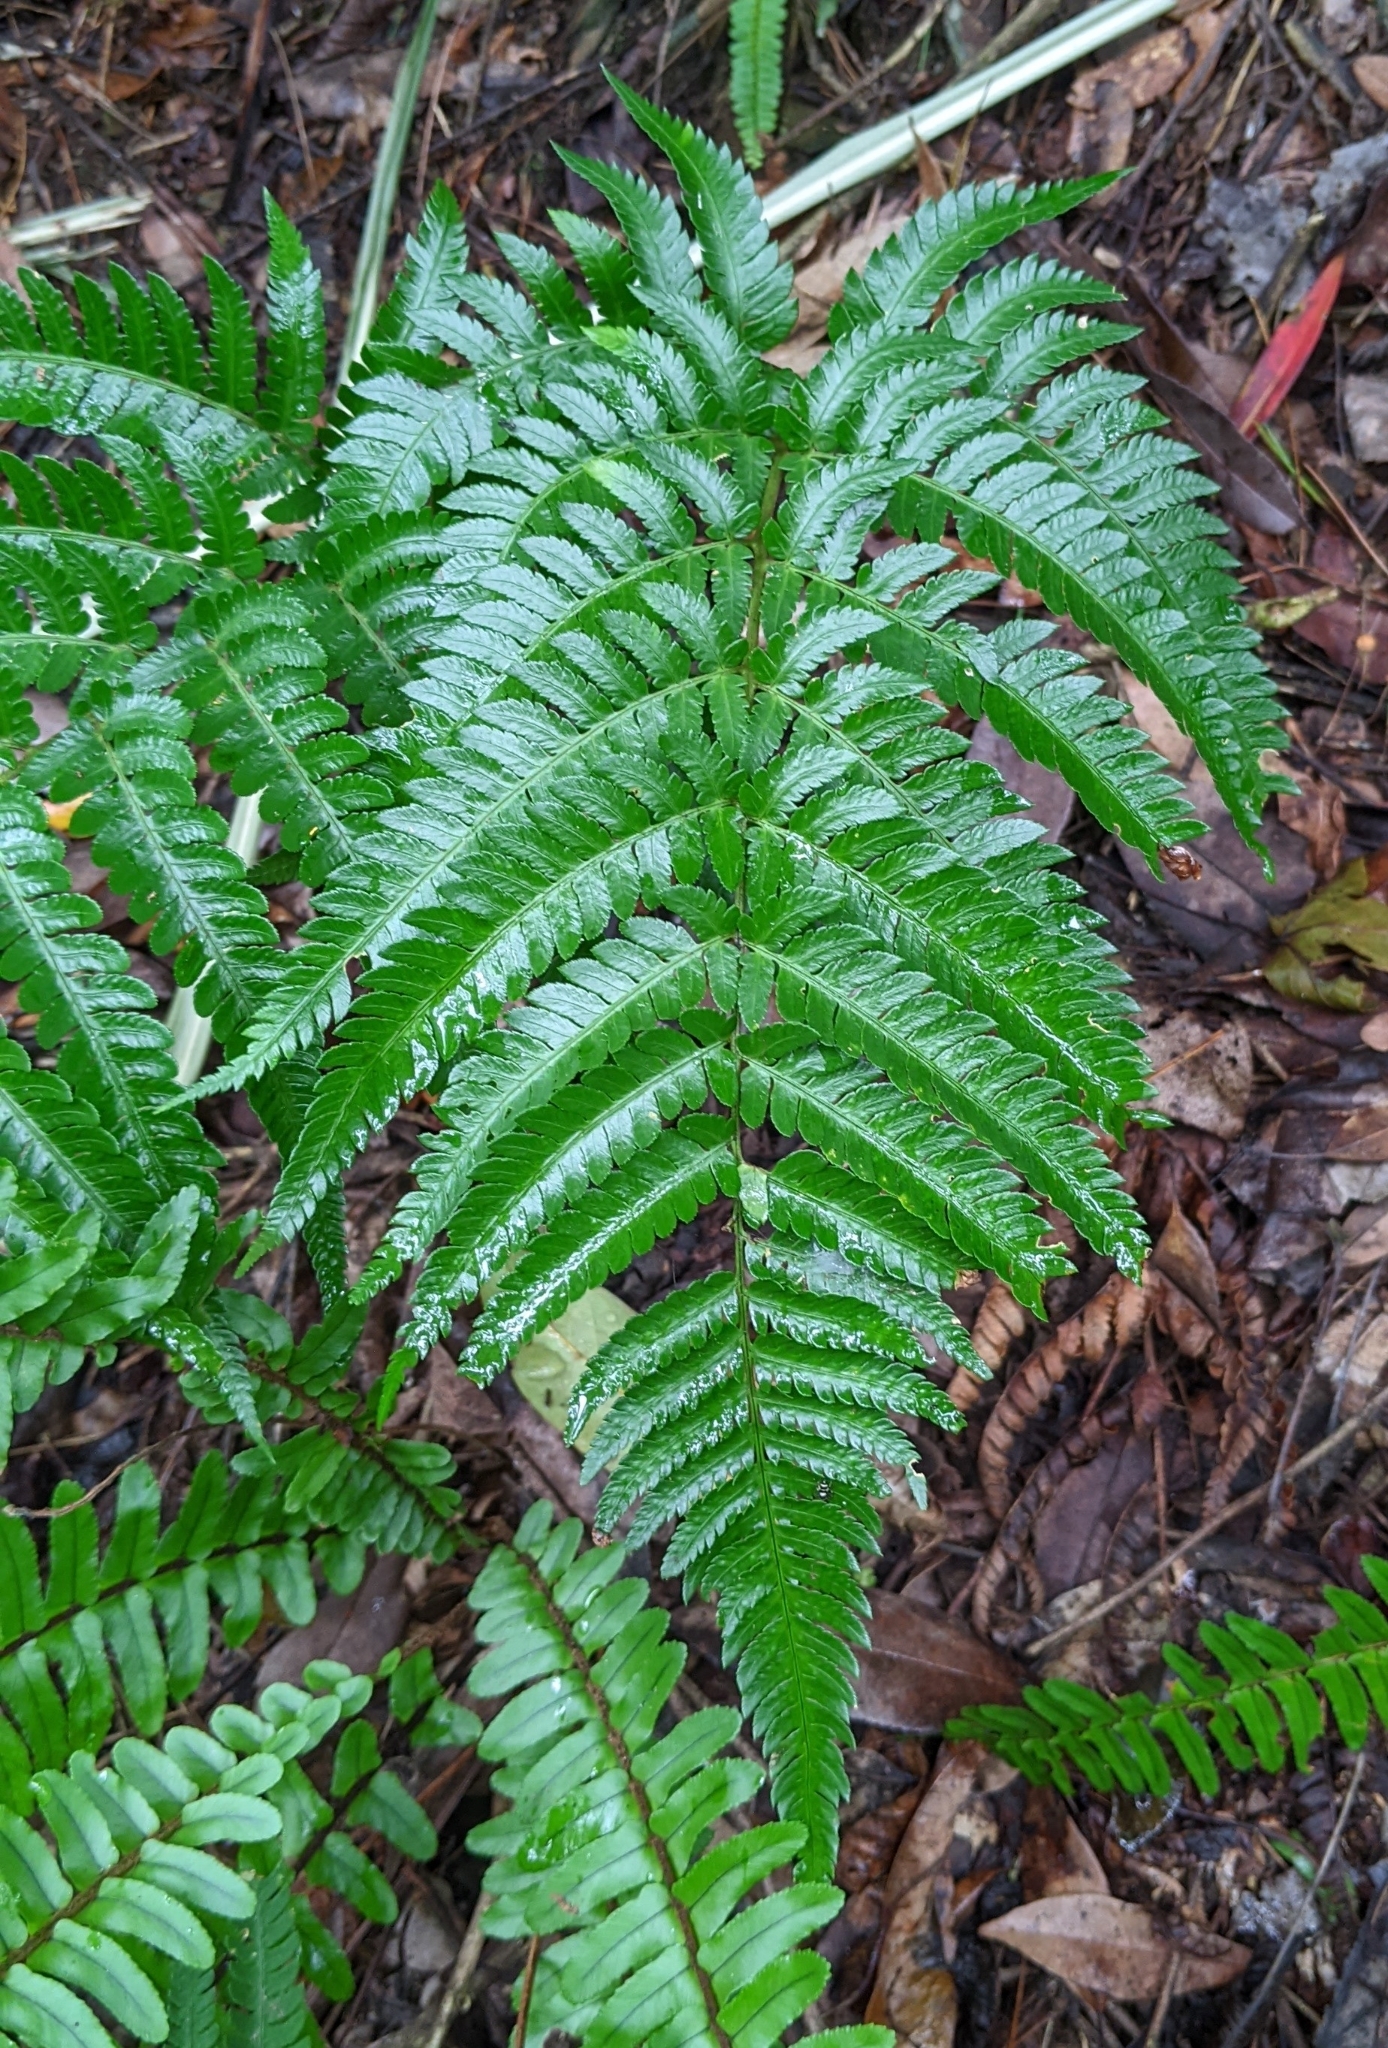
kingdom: Plantae
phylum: Tracheophyta
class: Polypodiopsida
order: Polypodiales
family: Dryopteridaceae
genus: Dryopteris
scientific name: Dryopteris varia
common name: Japanese holly fern
